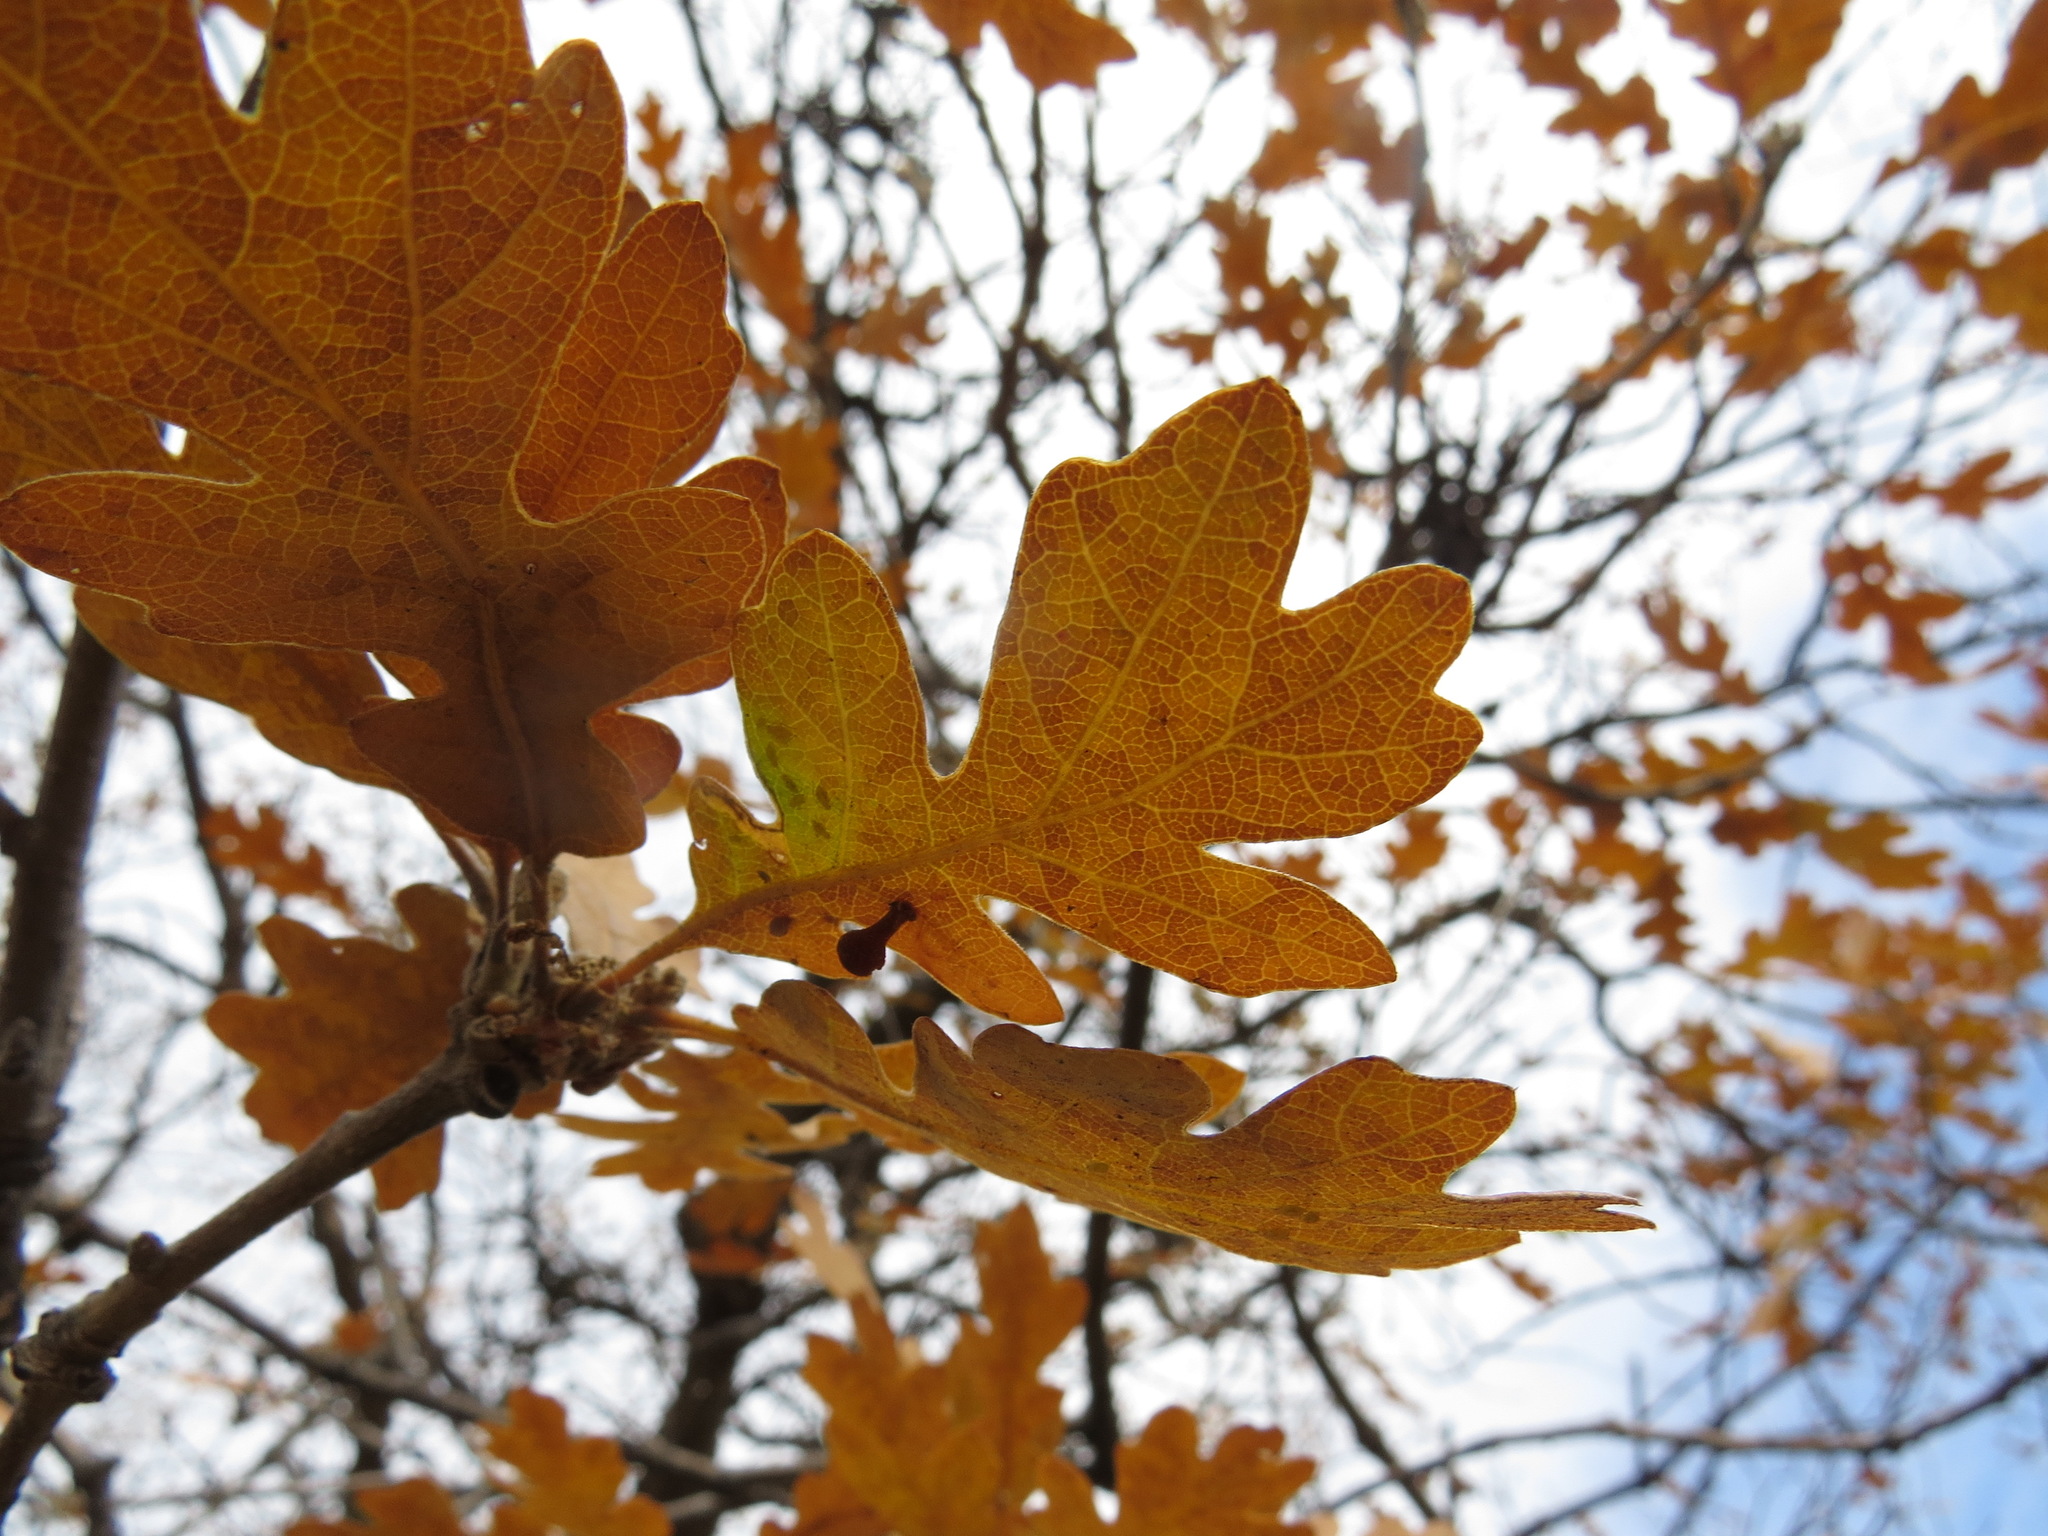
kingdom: Animalia
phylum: Arthropoda
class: Insecta
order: Hymenoptera
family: Cynipidae
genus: Trigonaspis
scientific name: Trigonaspis
